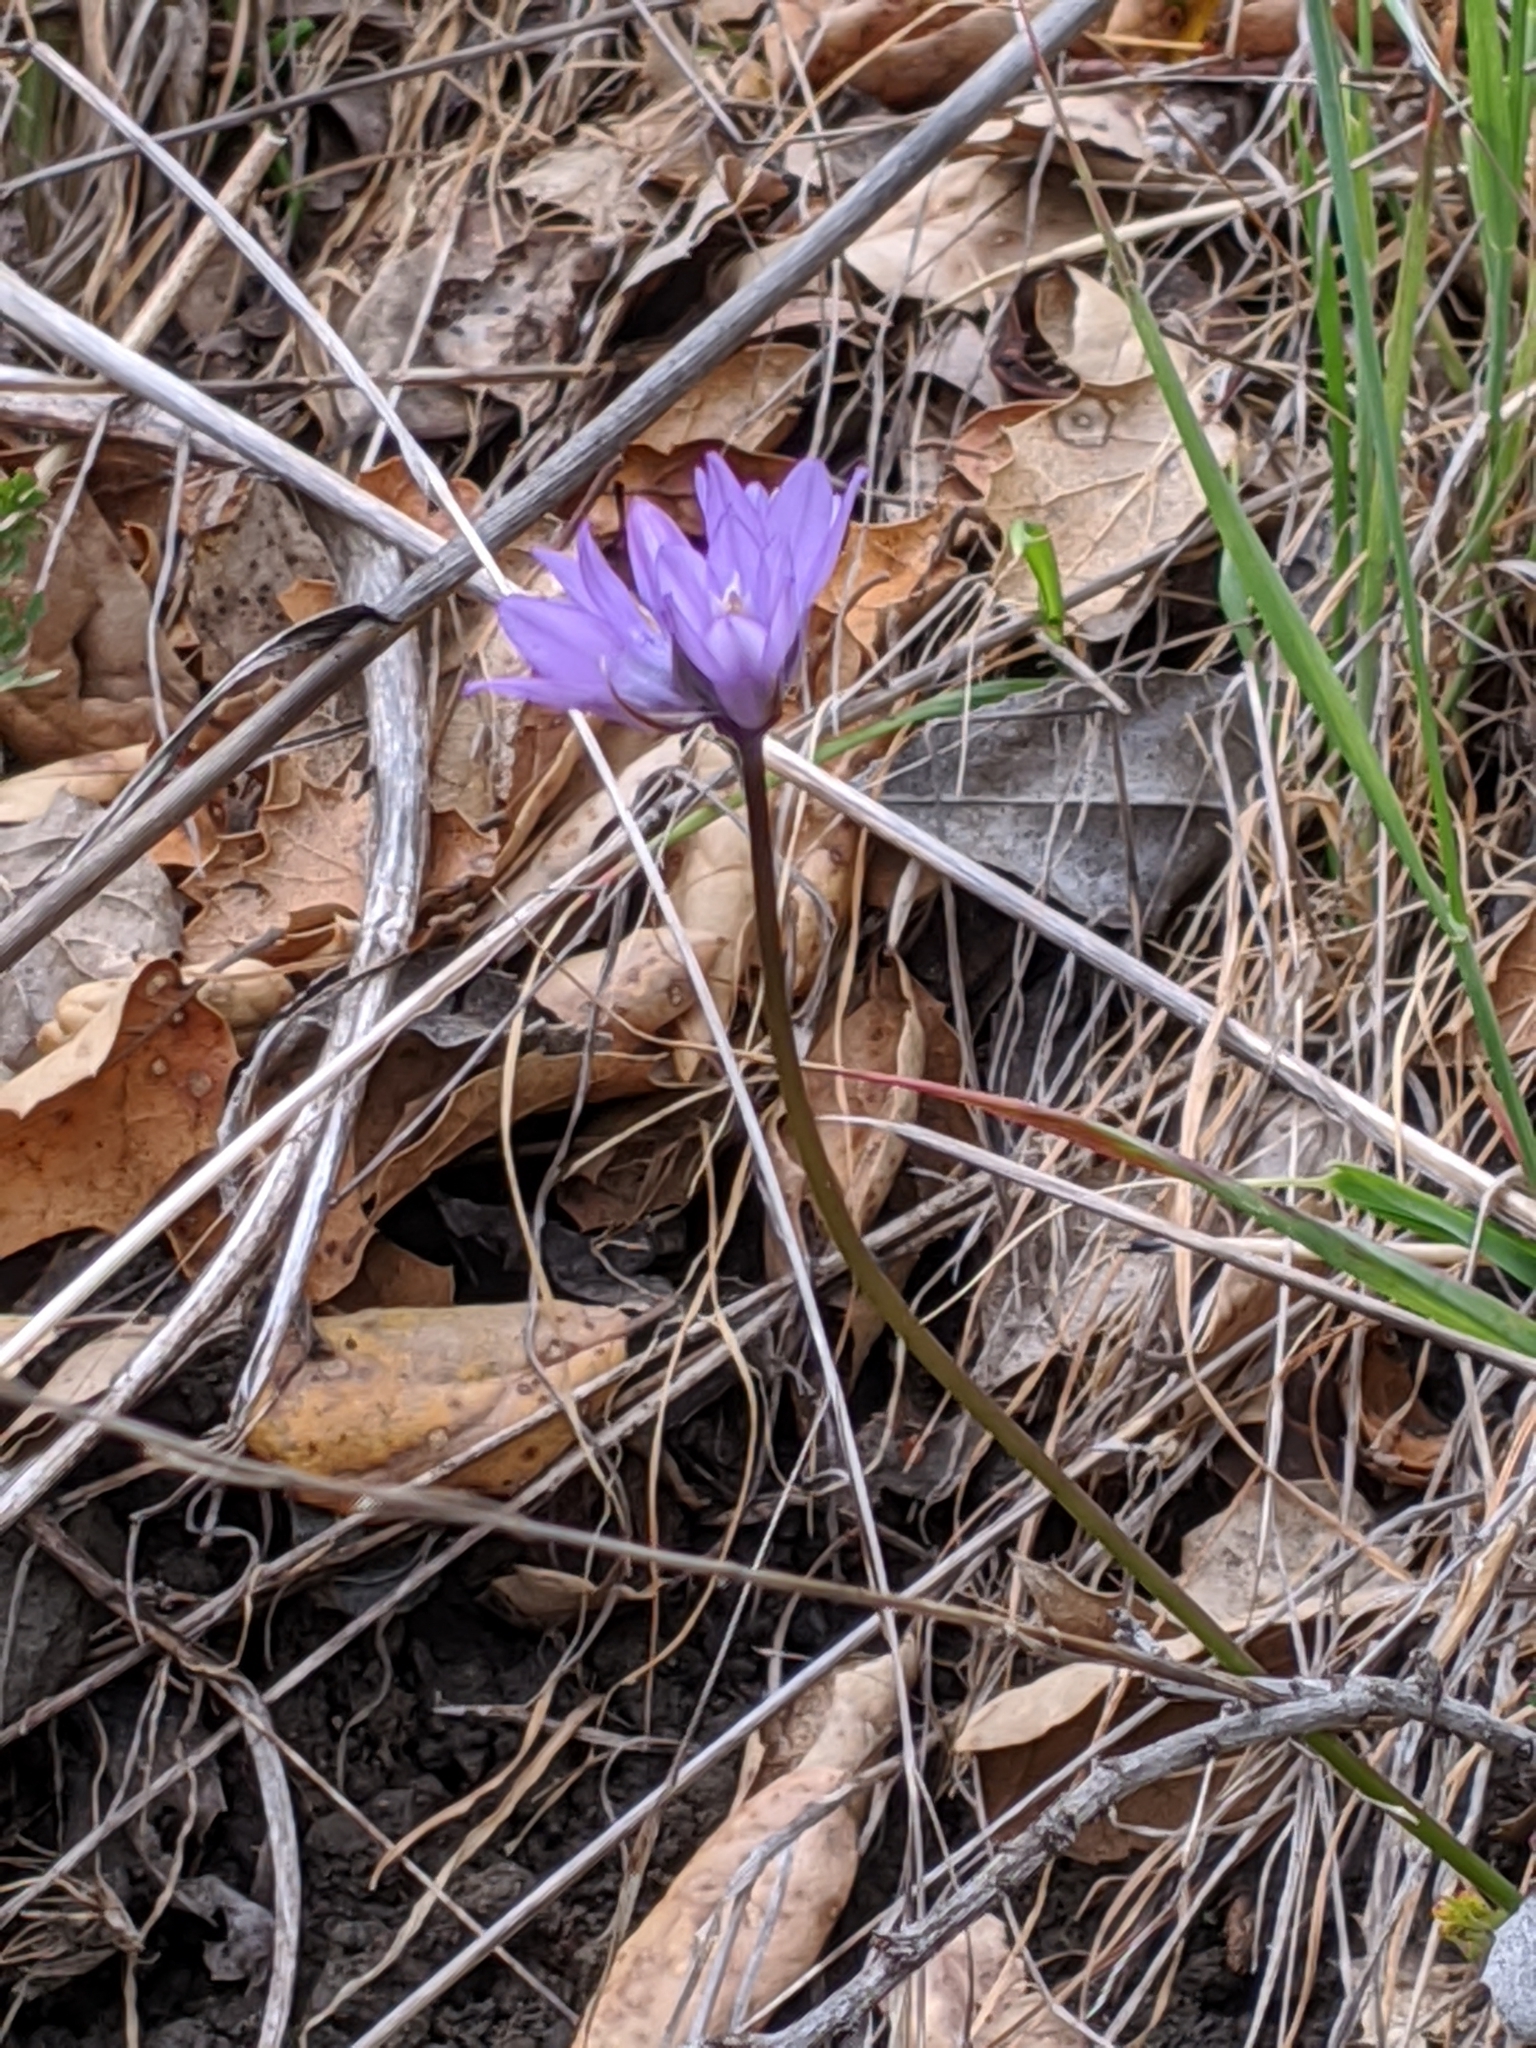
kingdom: Plantae
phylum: Tracheophyta
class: Liliopsida
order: Asparagales
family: Asparagaceae
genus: Dipterostemon
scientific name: Dipterostemon capitatus
